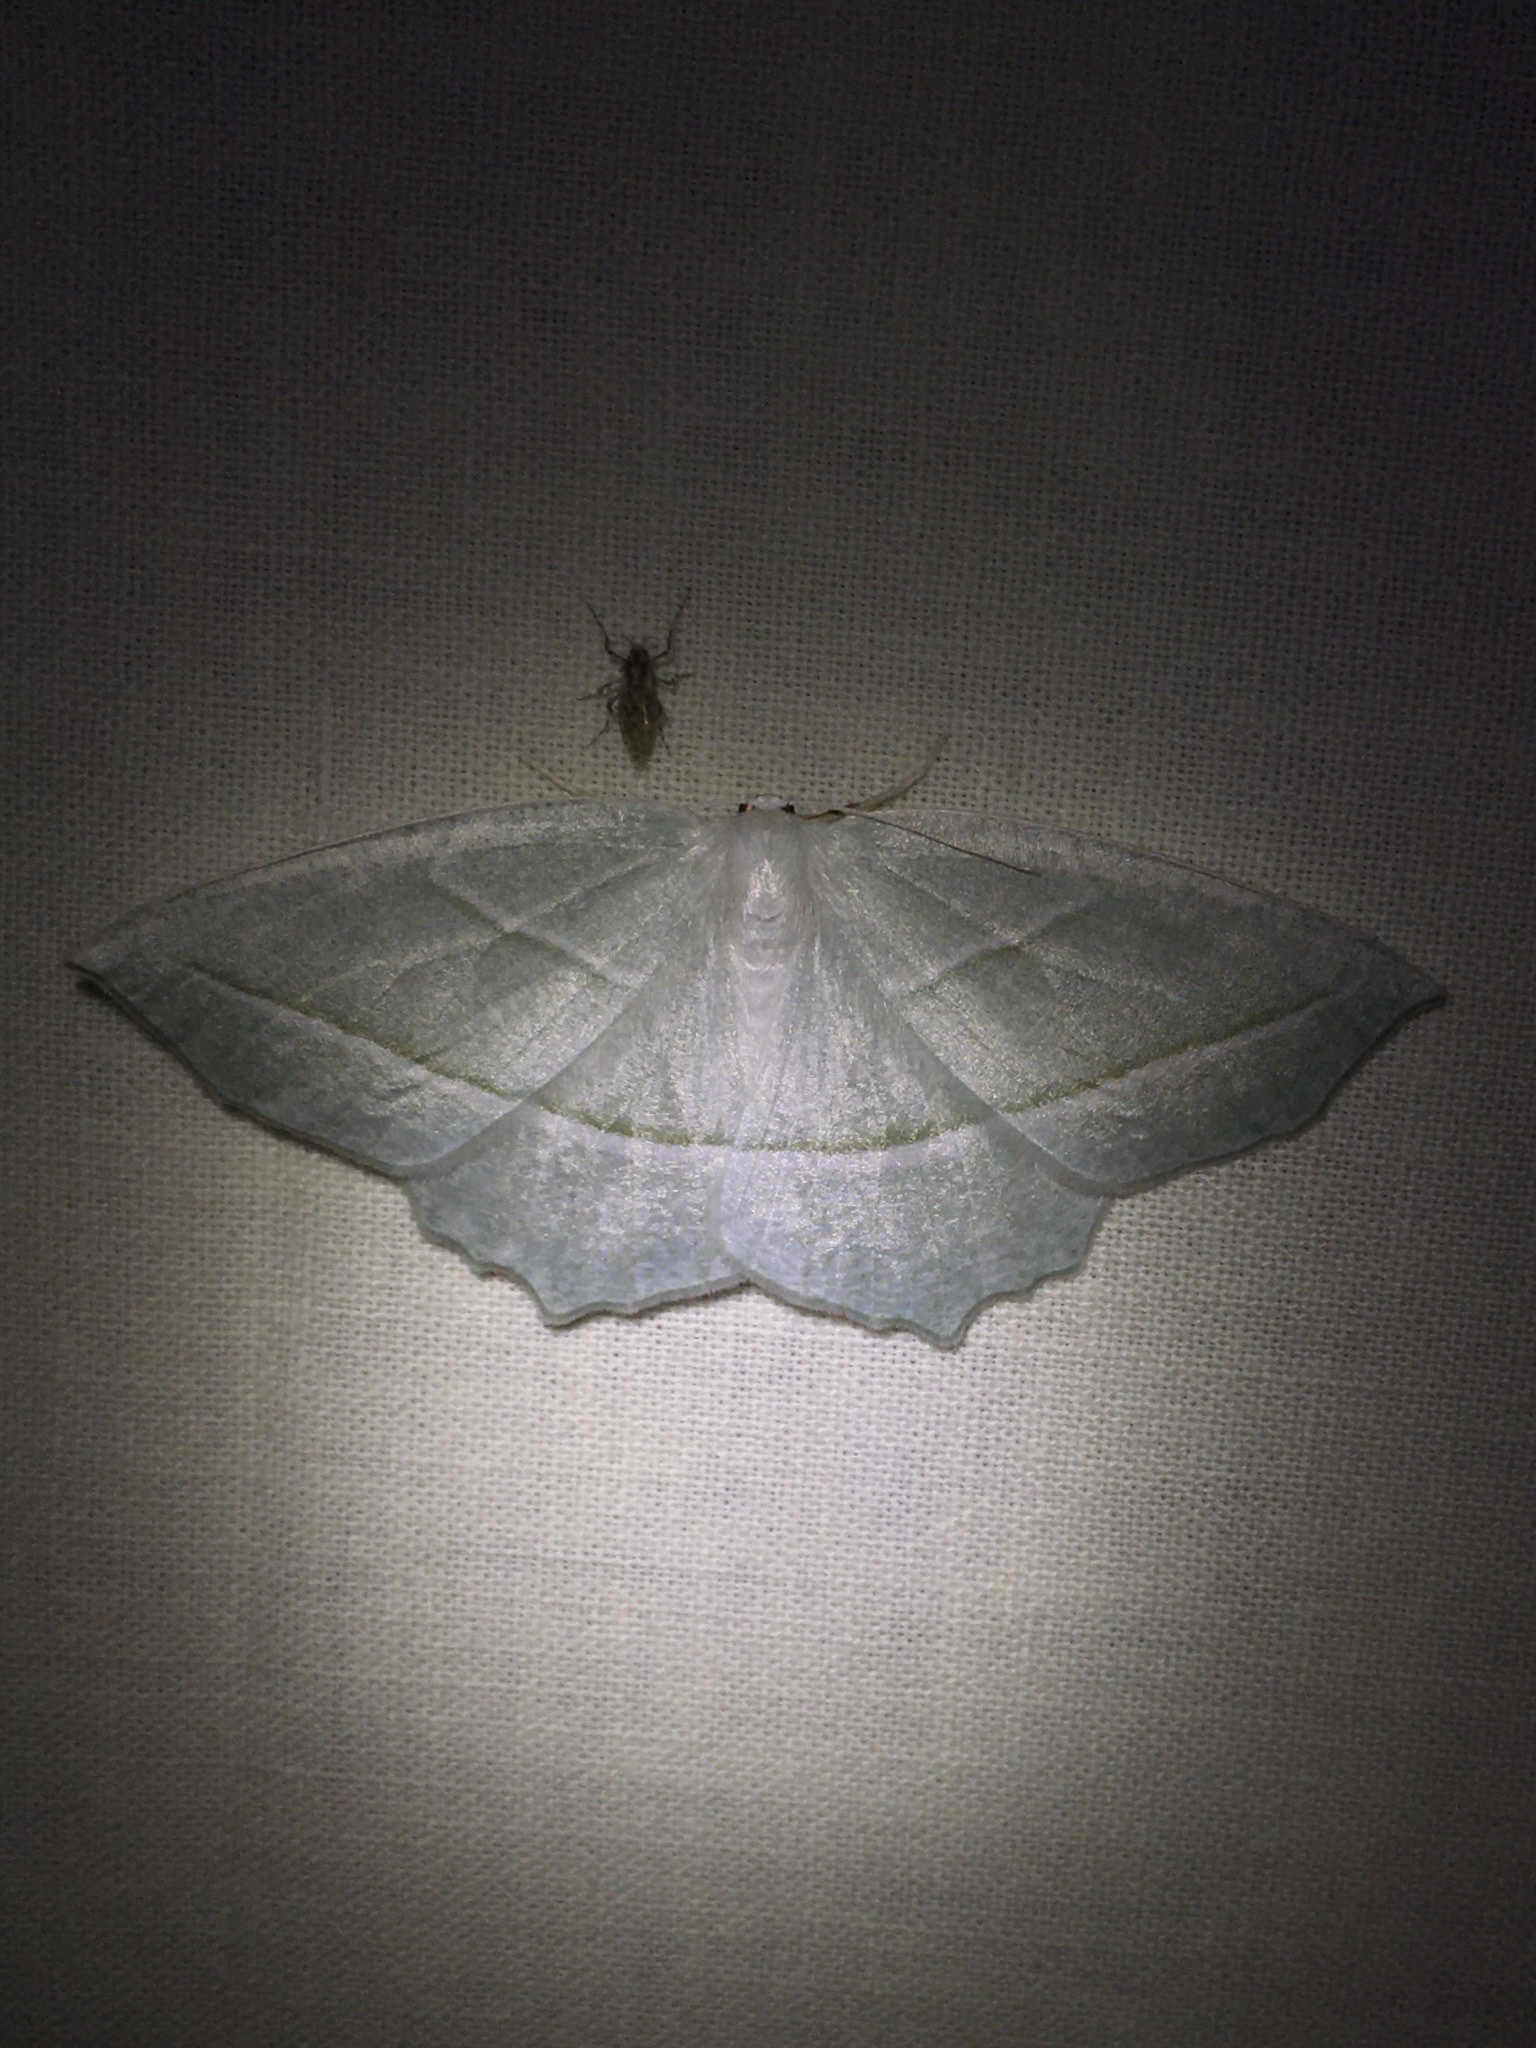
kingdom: Animalia
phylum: Arthropoda
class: Insecta
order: Lepidoptera
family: Geometridae
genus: Campaea
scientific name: Campaea perlata
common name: Fringed looper
